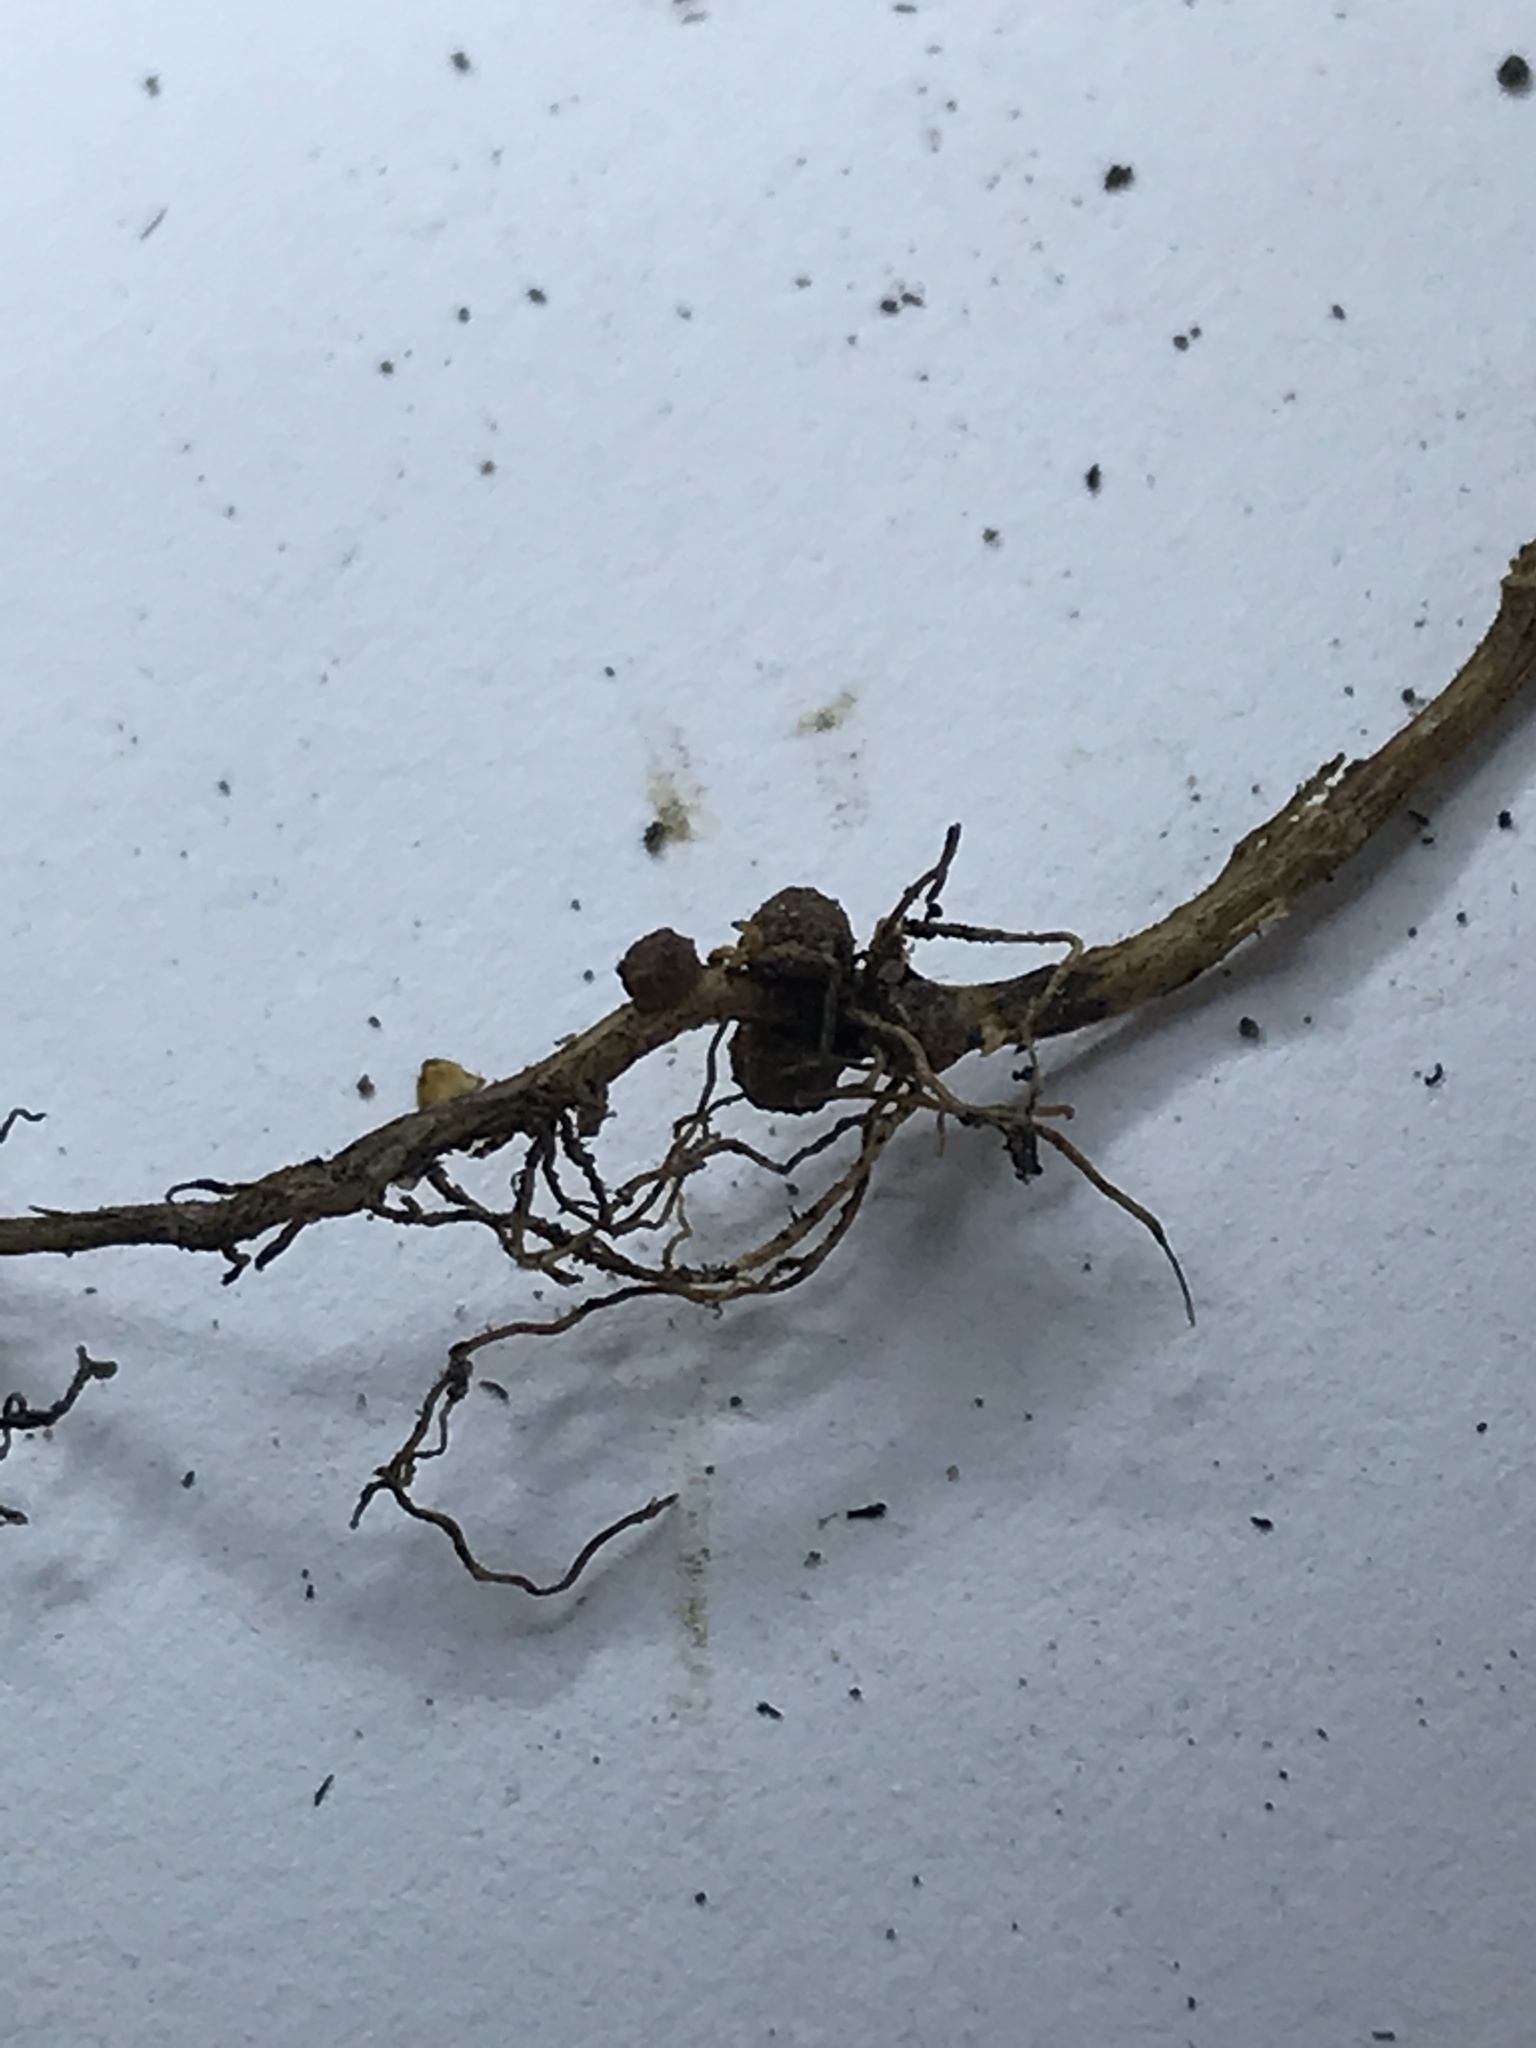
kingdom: Plantae
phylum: Tracheophyta
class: Magnoliopsida
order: Fabales
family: Fabaceae
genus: Kummerowia
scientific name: Kummerowia striata
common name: Japanese clover
